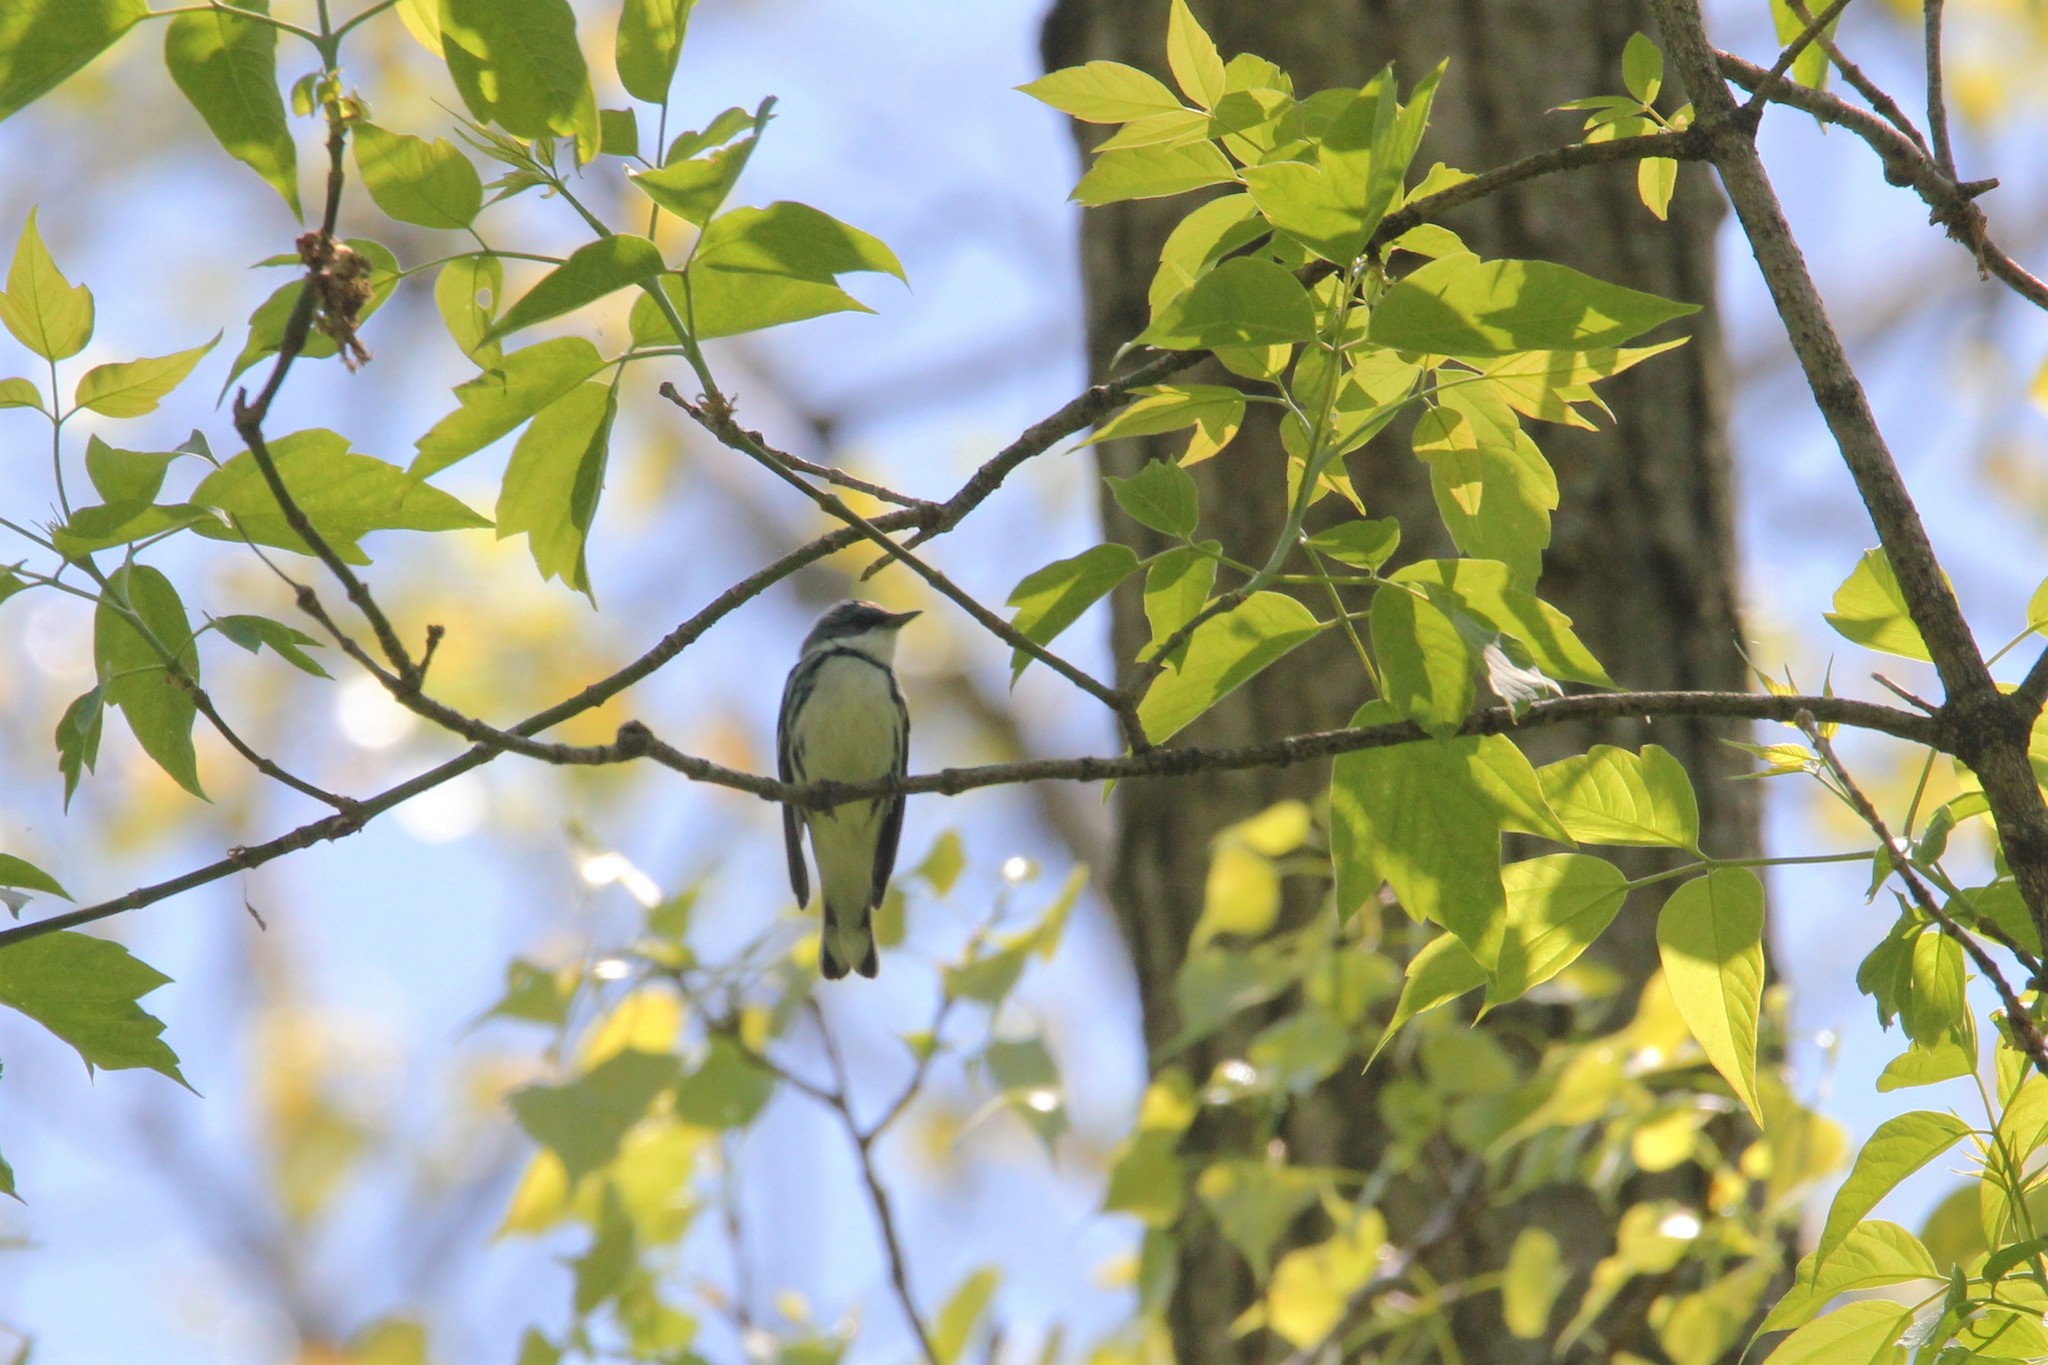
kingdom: Animalia
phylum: Chordata
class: Aves
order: Passeriformes
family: Parulidae
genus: Setophaga
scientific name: Setophaga cerulea
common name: Cerulean warbler
